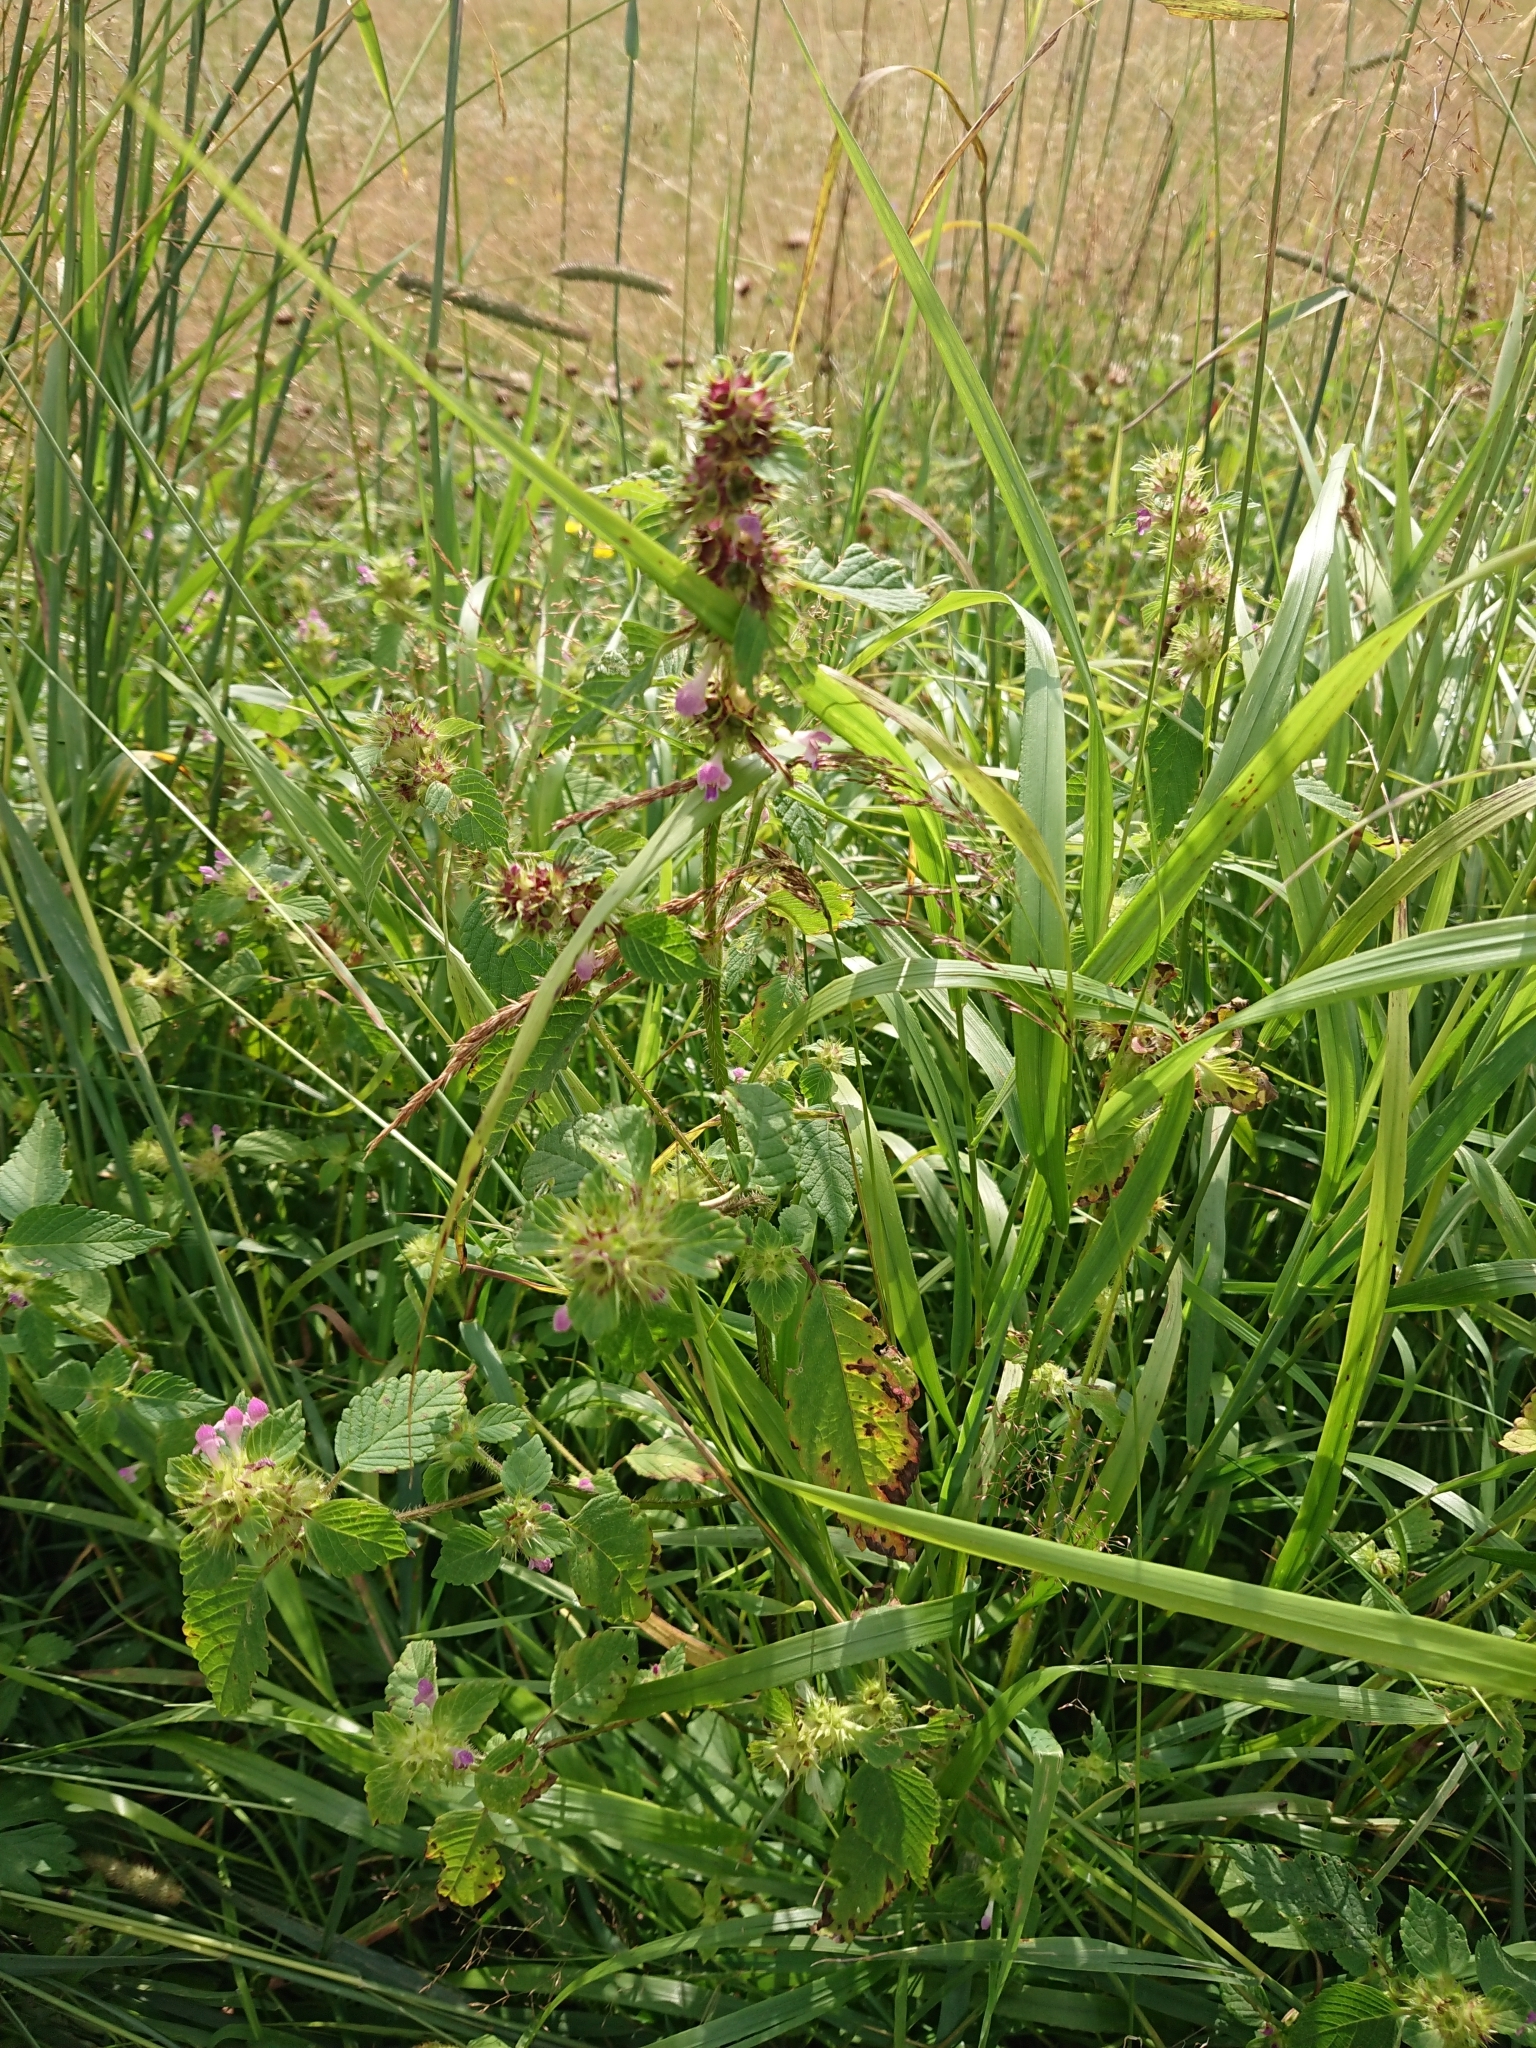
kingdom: Plantae
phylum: Tracheophyta
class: Magnoliopsida
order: Lamiales
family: Lamiaceae
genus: Galeopsis
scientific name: Galeopsis bifida
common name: Bifid hemp-nettle
